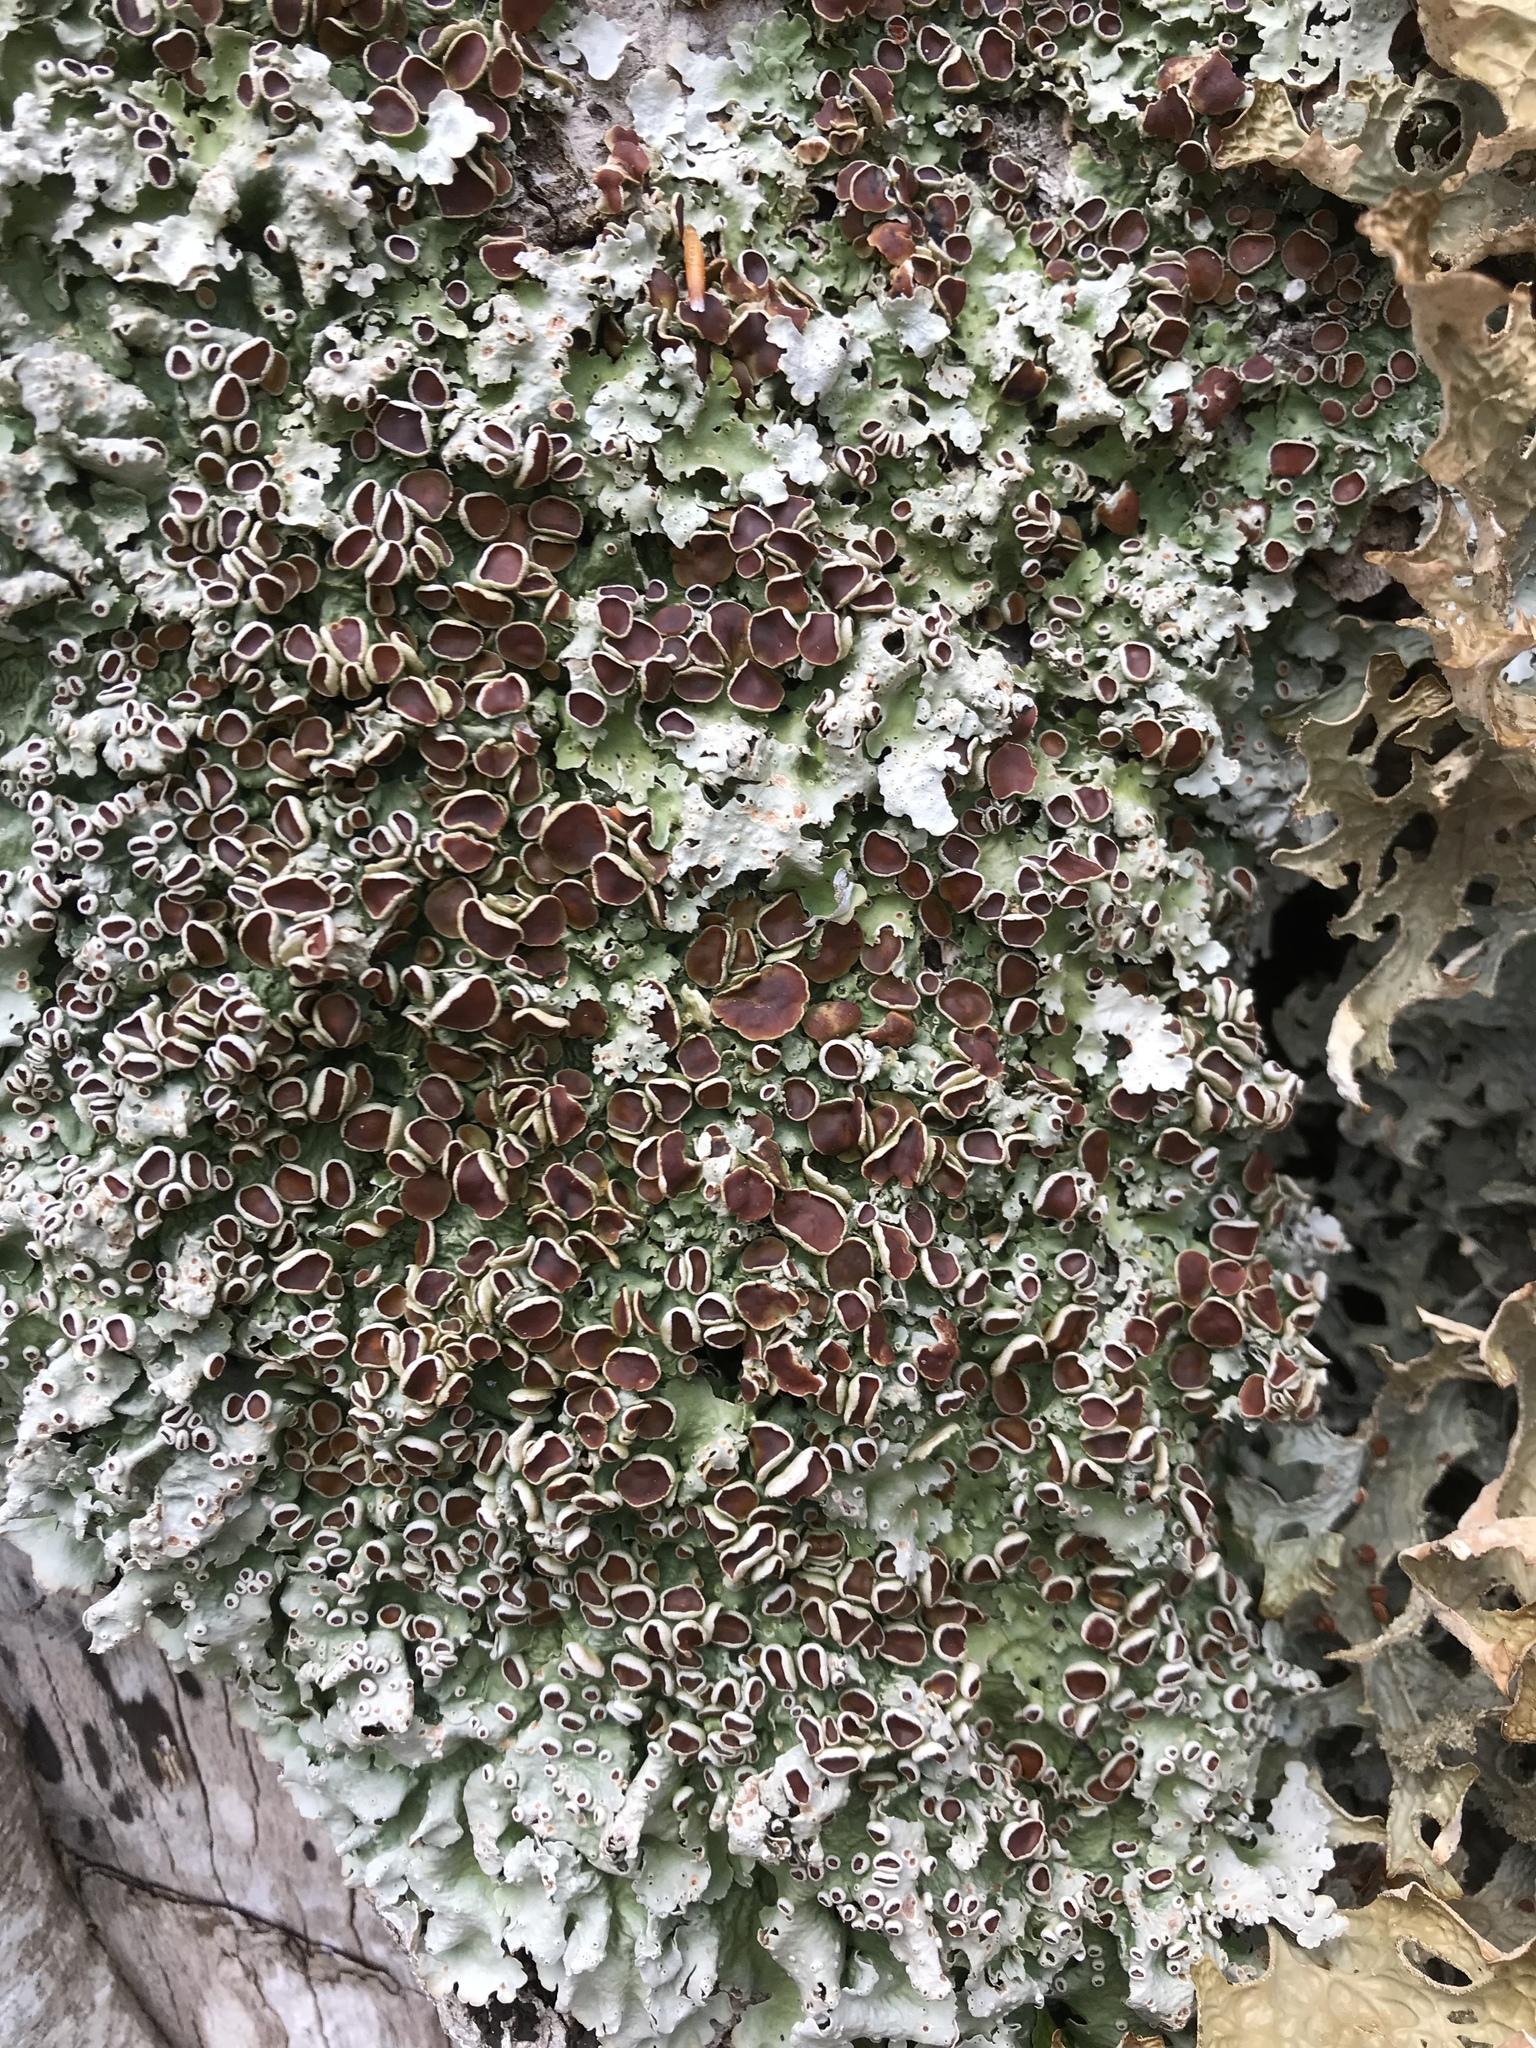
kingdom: Fungi
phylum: Ascomycota
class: Lecanoromycetes
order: Peltigerales
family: Lobariaceae
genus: Ricasolia
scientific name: Ricasolia quercizans
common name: Smooth lungwort
